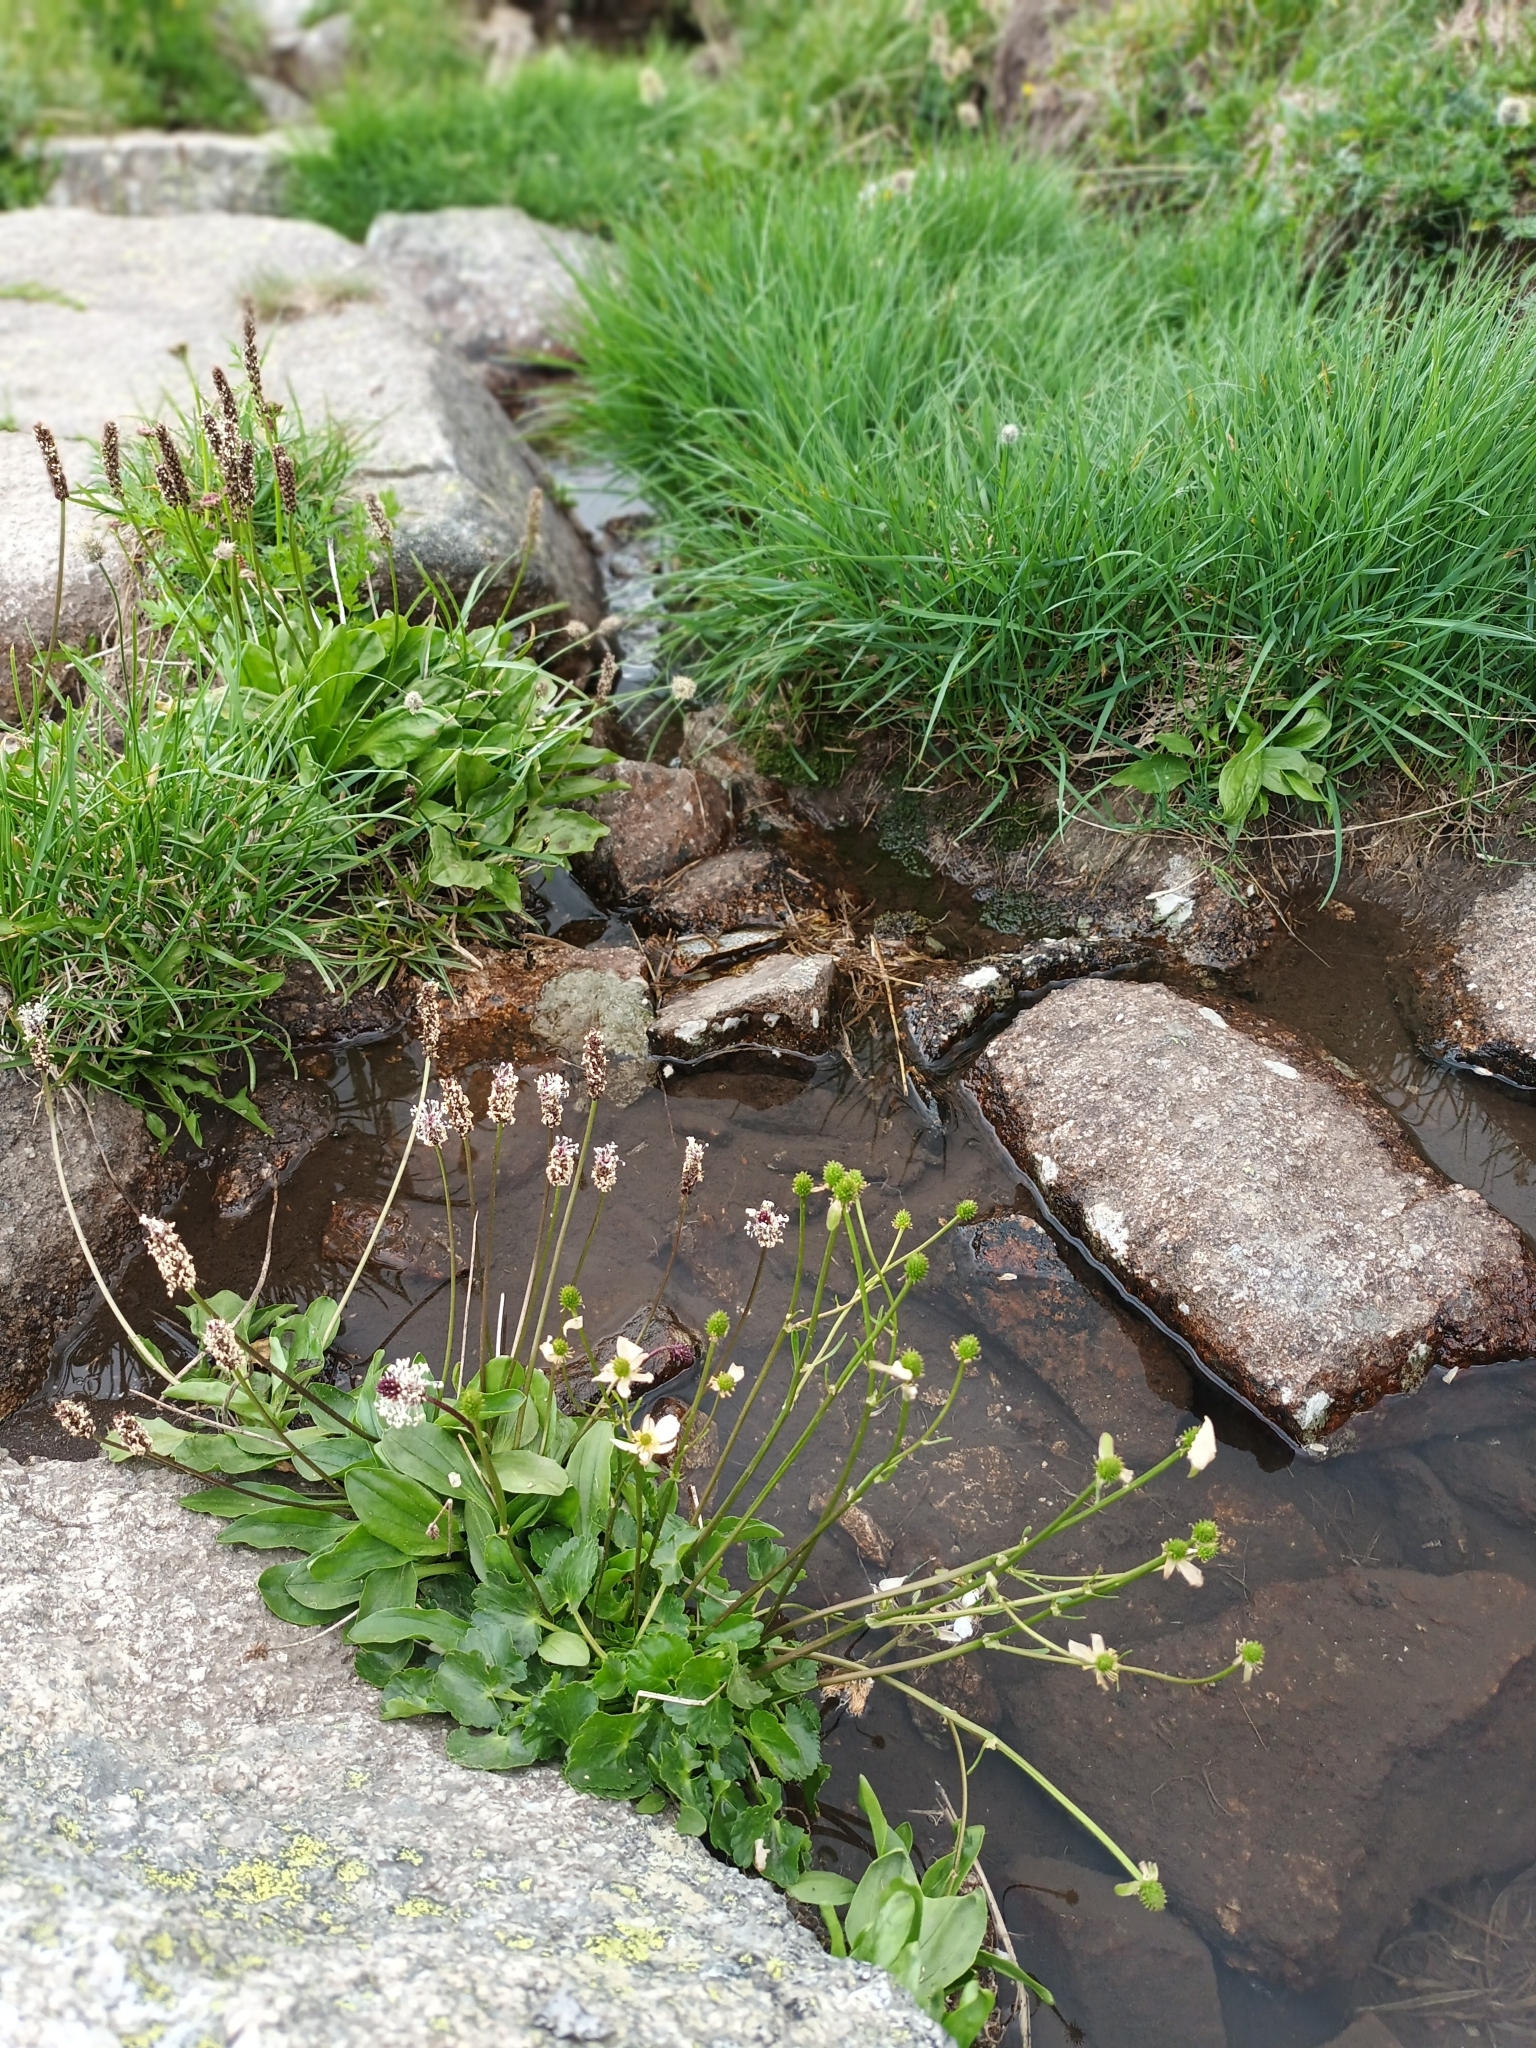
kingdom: Plantae
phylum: Tracheophyta
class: Magnoliopsida
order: Lamiales
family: Plantaginaceae
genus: Plantago
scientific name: Plantago gentianoides
